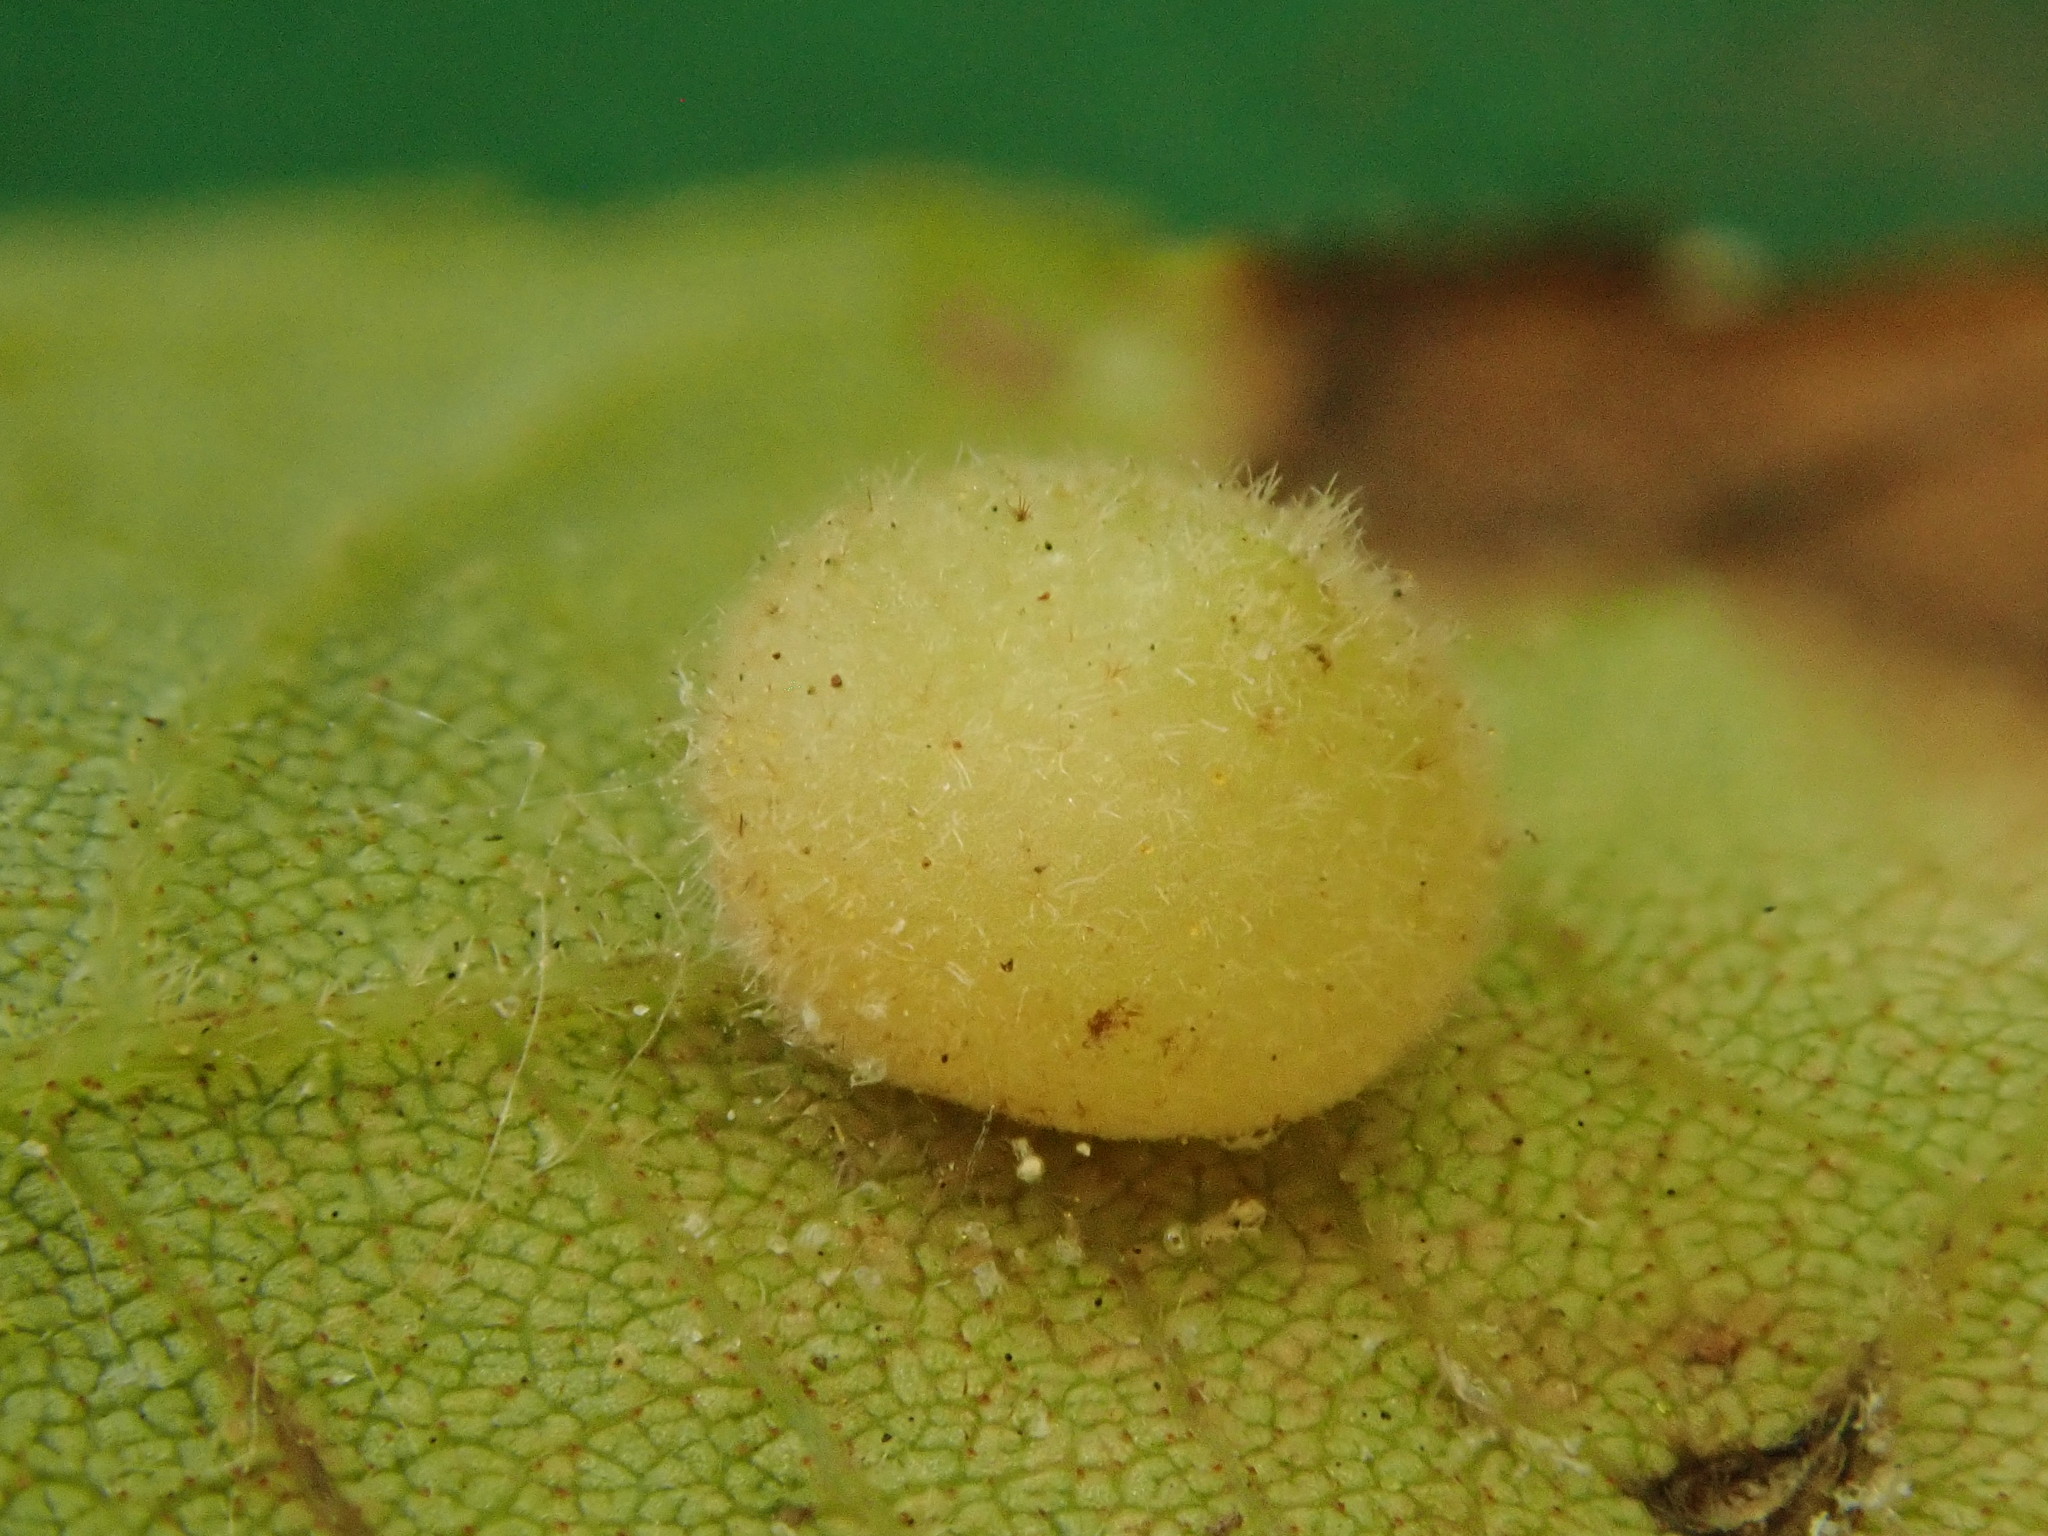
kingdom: Animalia
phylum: Arthropoda
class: Insecta
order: Diptera
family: Cecidomyiidae
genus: Caryomyia
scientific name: Caryomyia antennata
